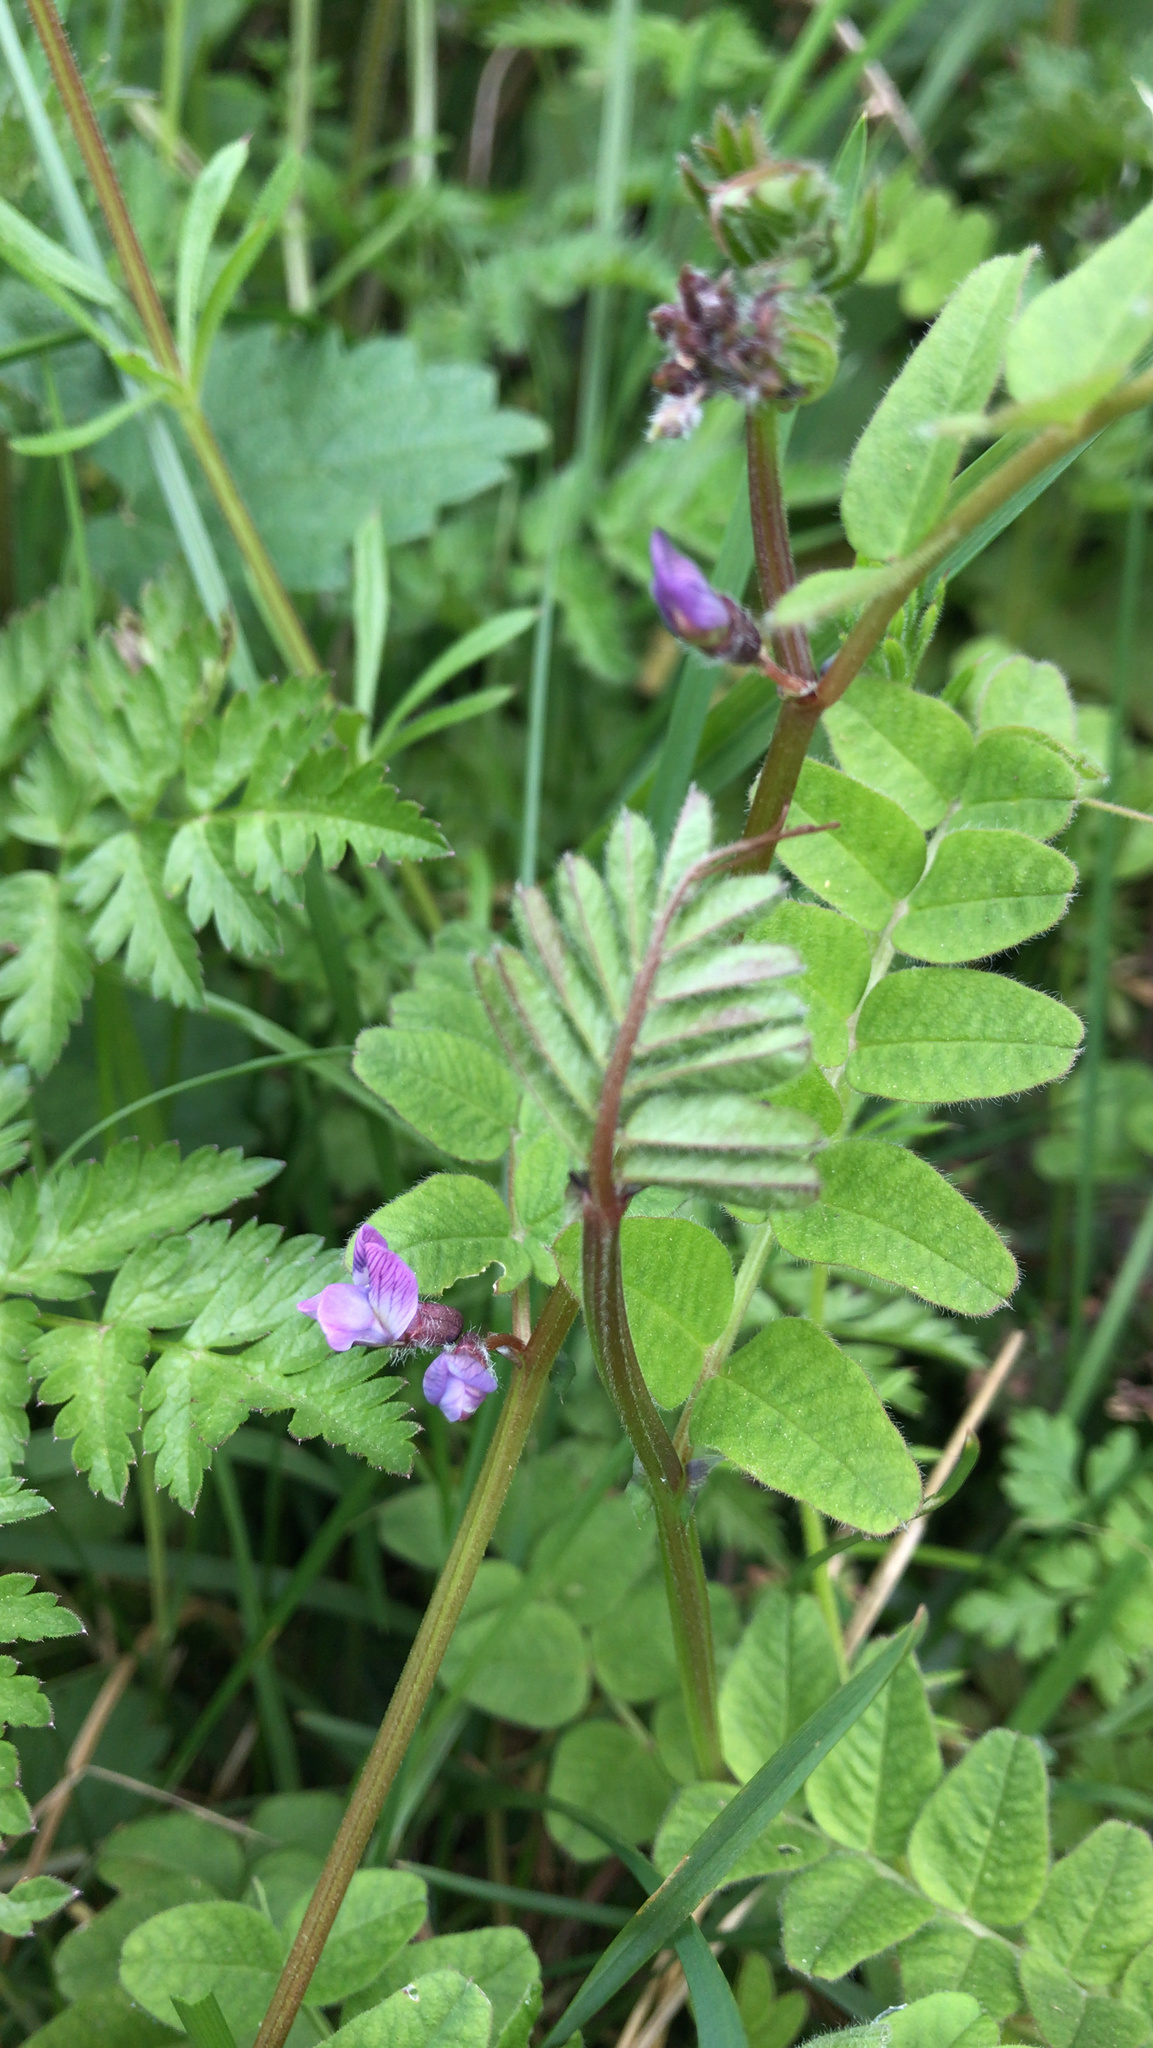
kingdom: Plantae
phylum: Tracheophyta
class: Magnoliopsida
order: Fabales
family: Fabaceae
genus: Vicia
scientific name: Vicia sepium
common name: Bush vetch
